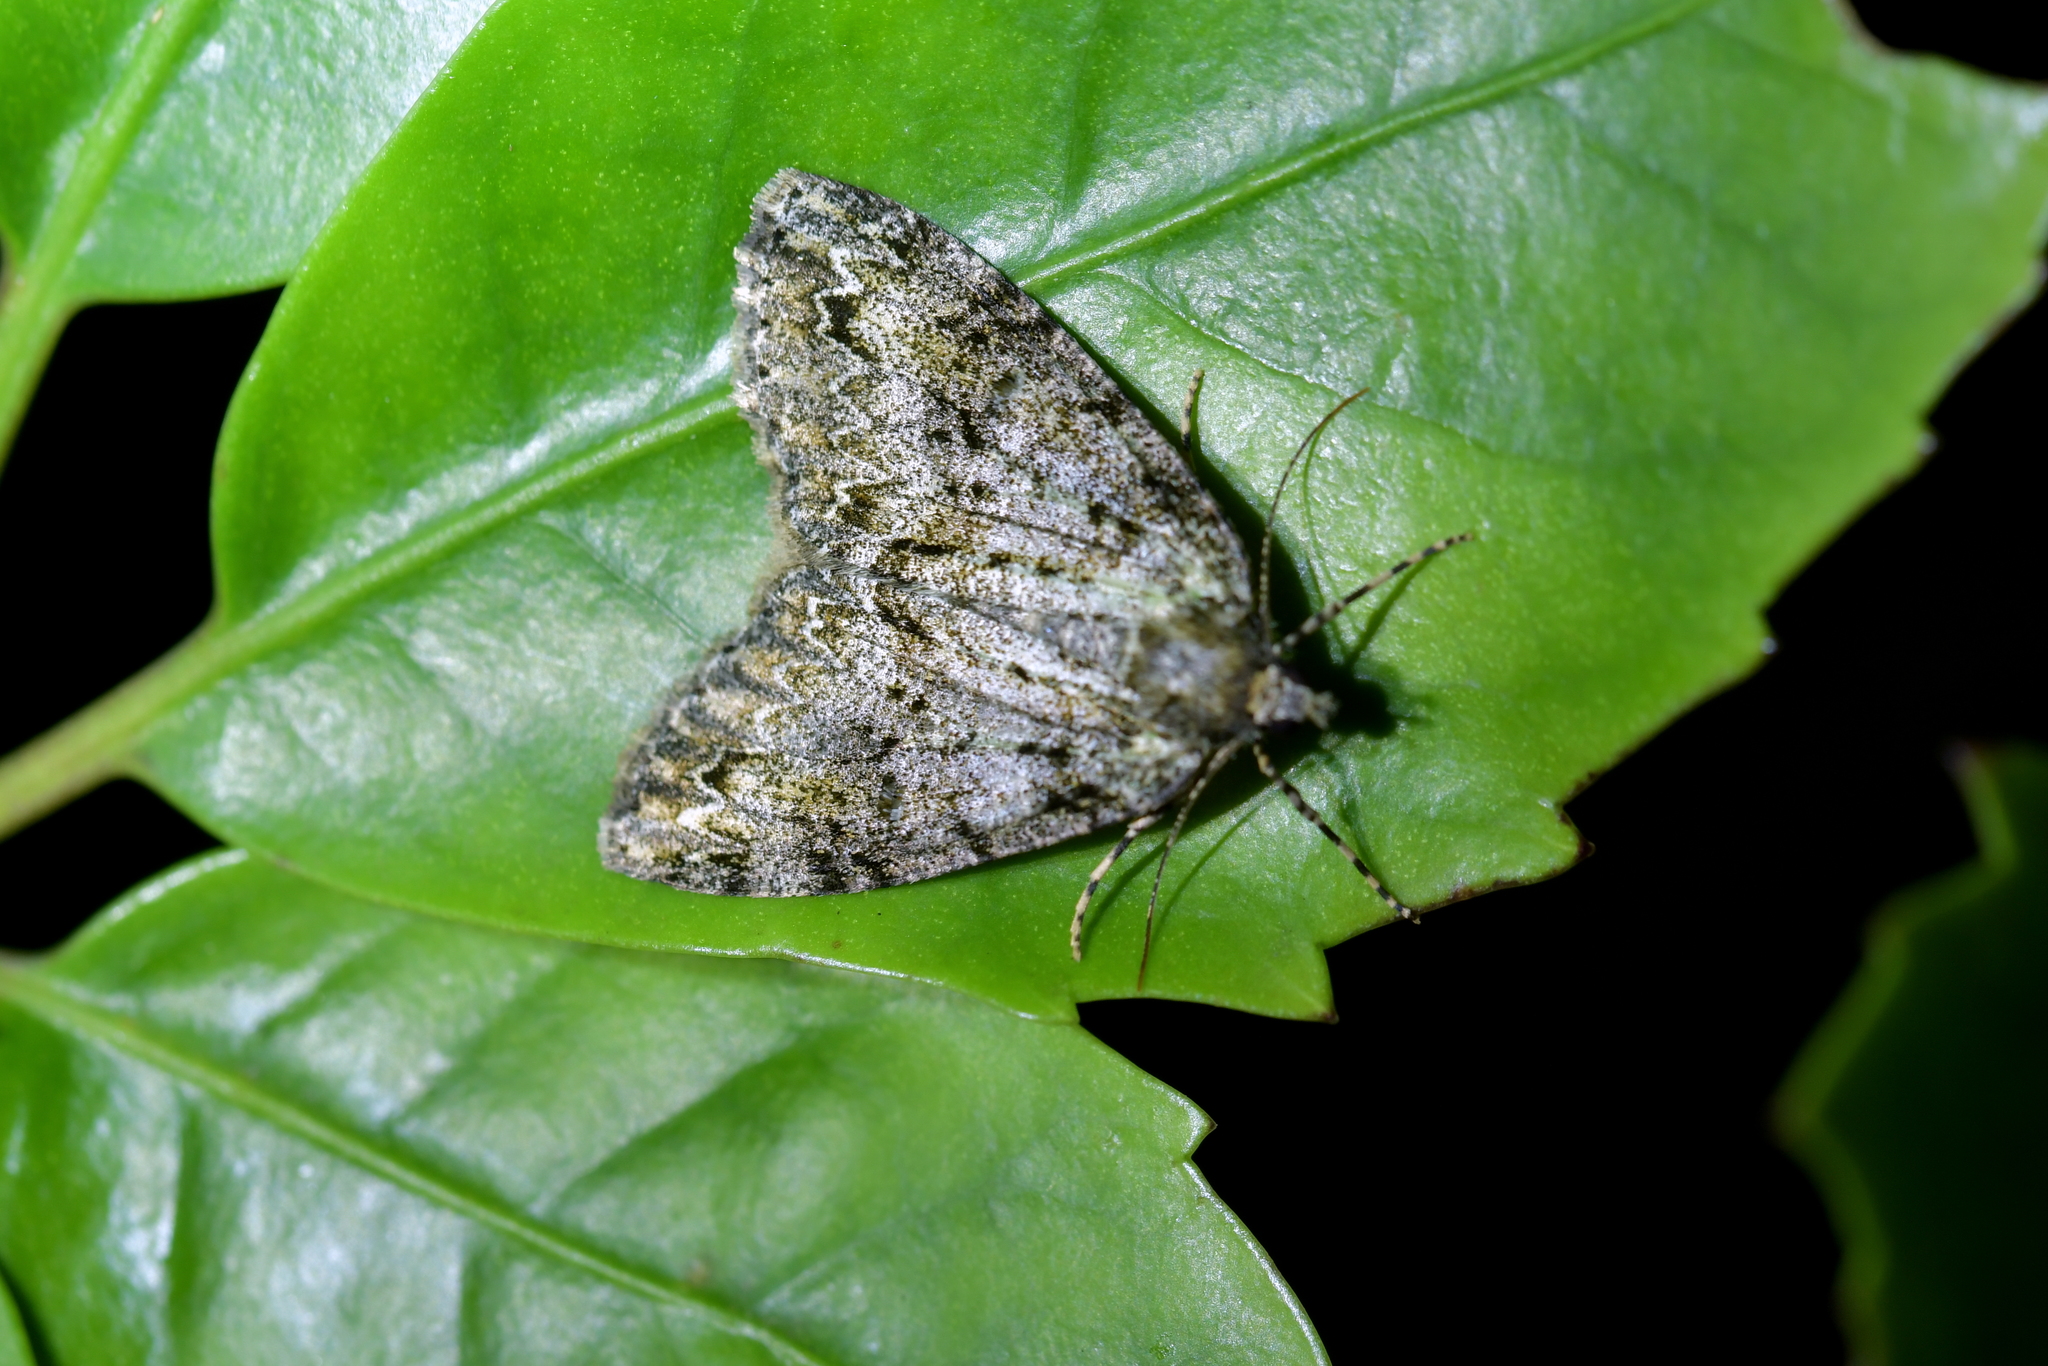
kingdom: Animalia
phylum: Arthropoda
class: Insecta
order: Lepidoptera
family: Geometridae
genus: Pseudocoremia
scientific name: Pseudocoremia suavis
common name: Common forest looper
